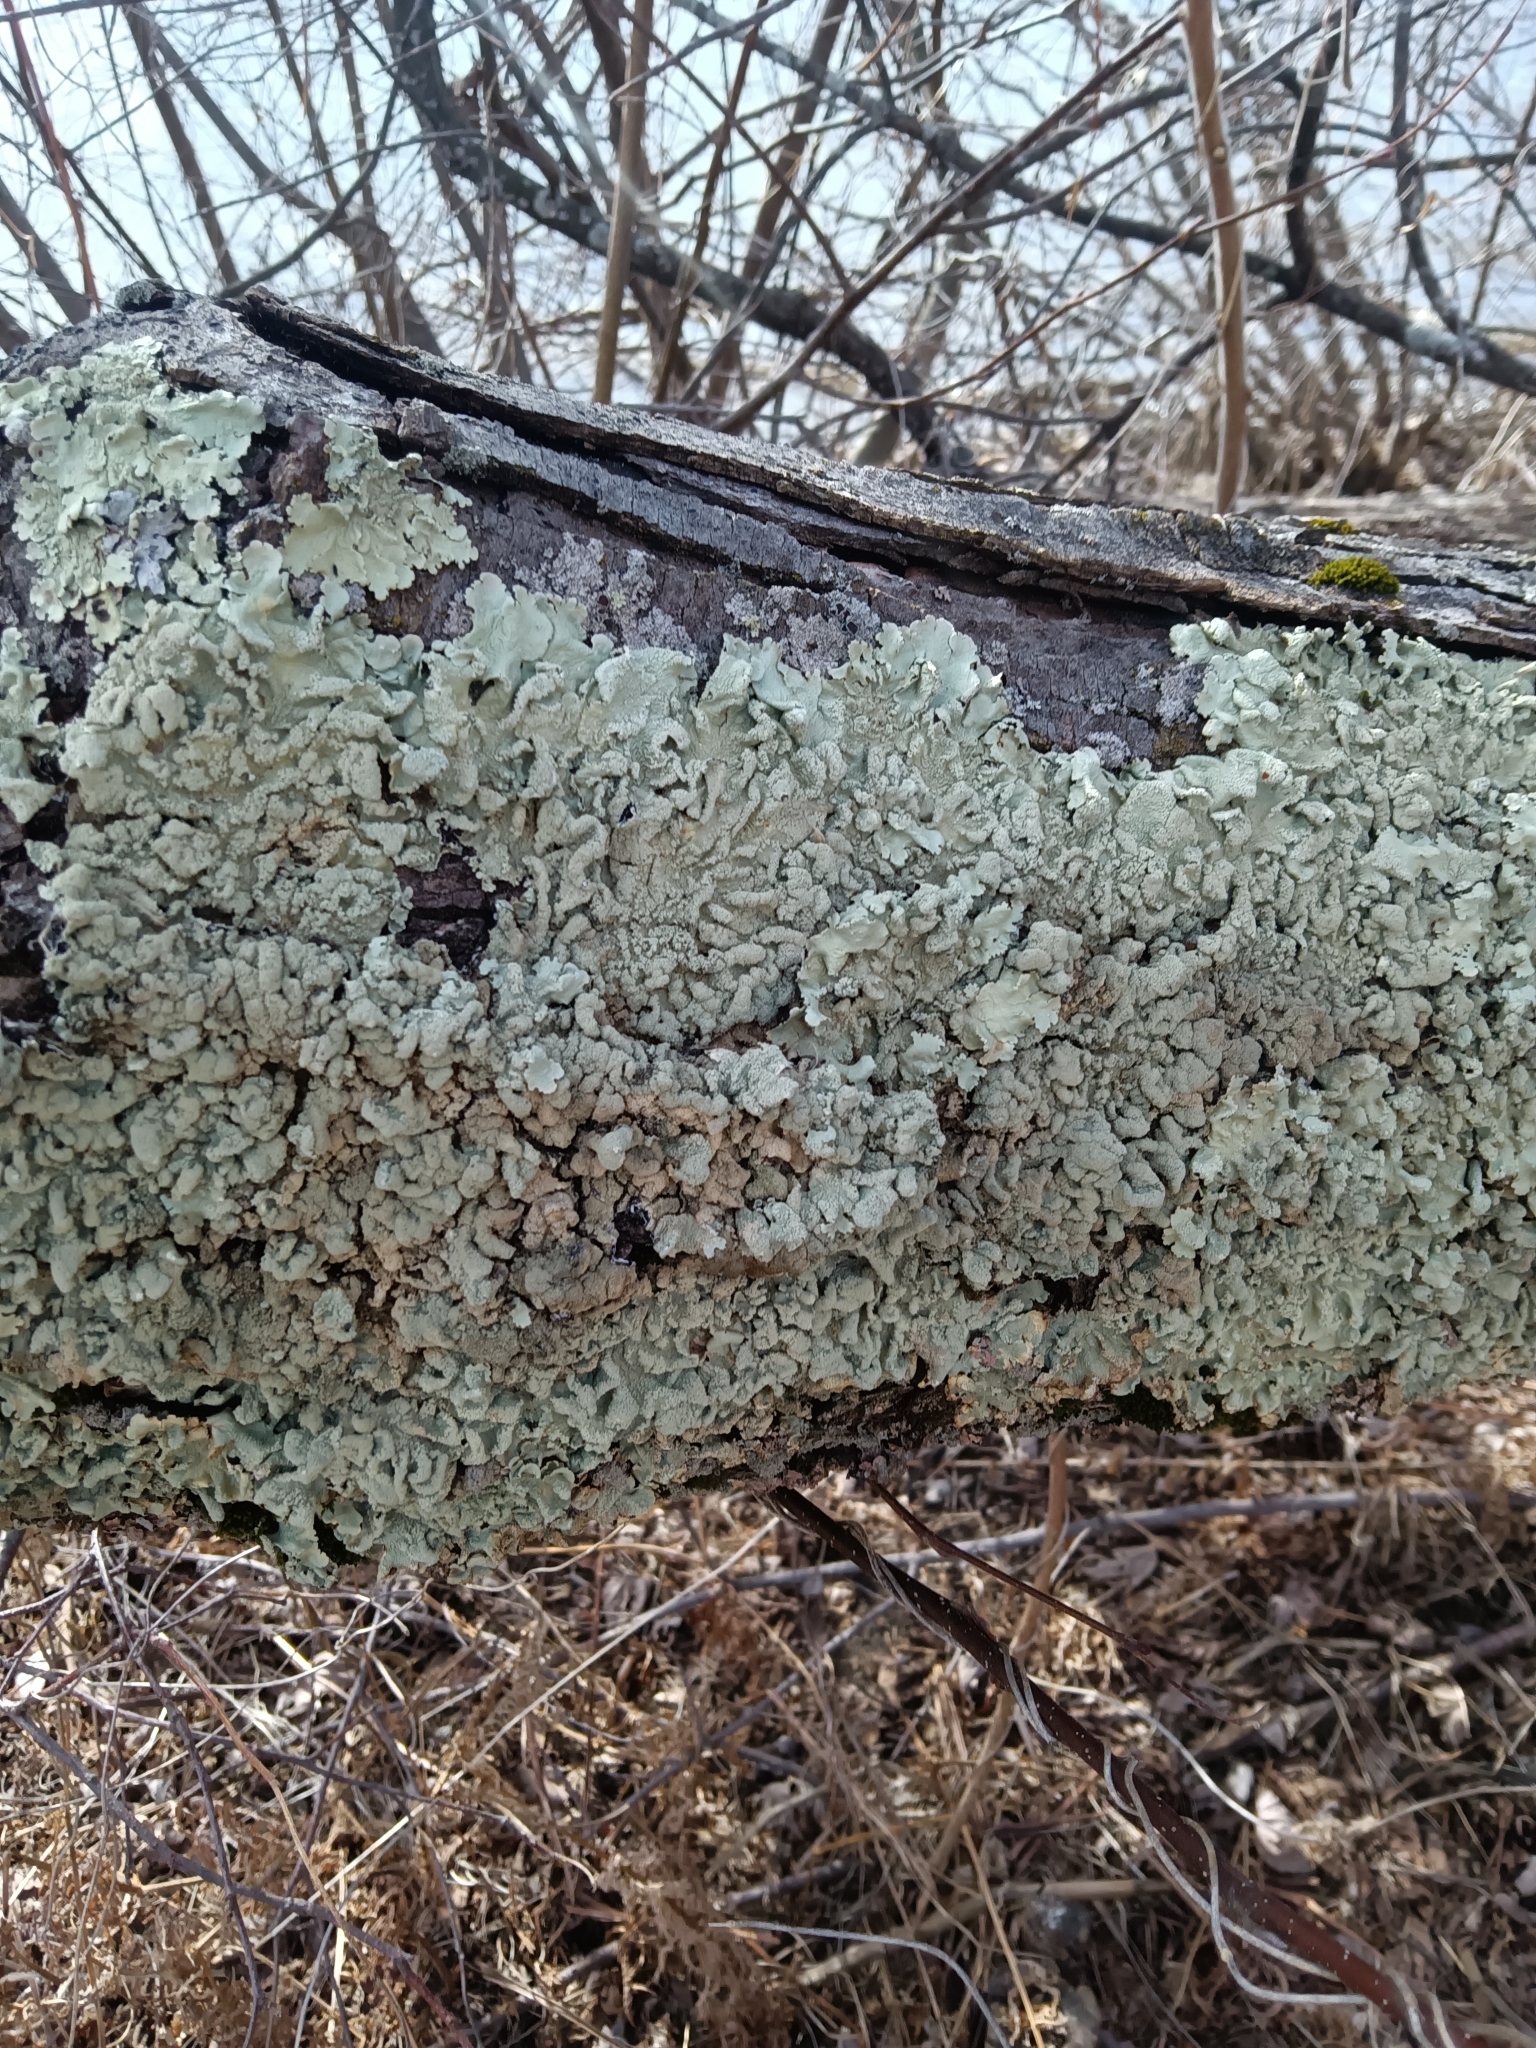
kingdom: Fungi
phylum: Ascomycota
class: Lecanoromycetes
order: Lecanorales
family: Parmeliaceae
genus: Flavoparmelia
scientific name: Flavoparmelia caperata
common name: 40-mile per hour lichen
